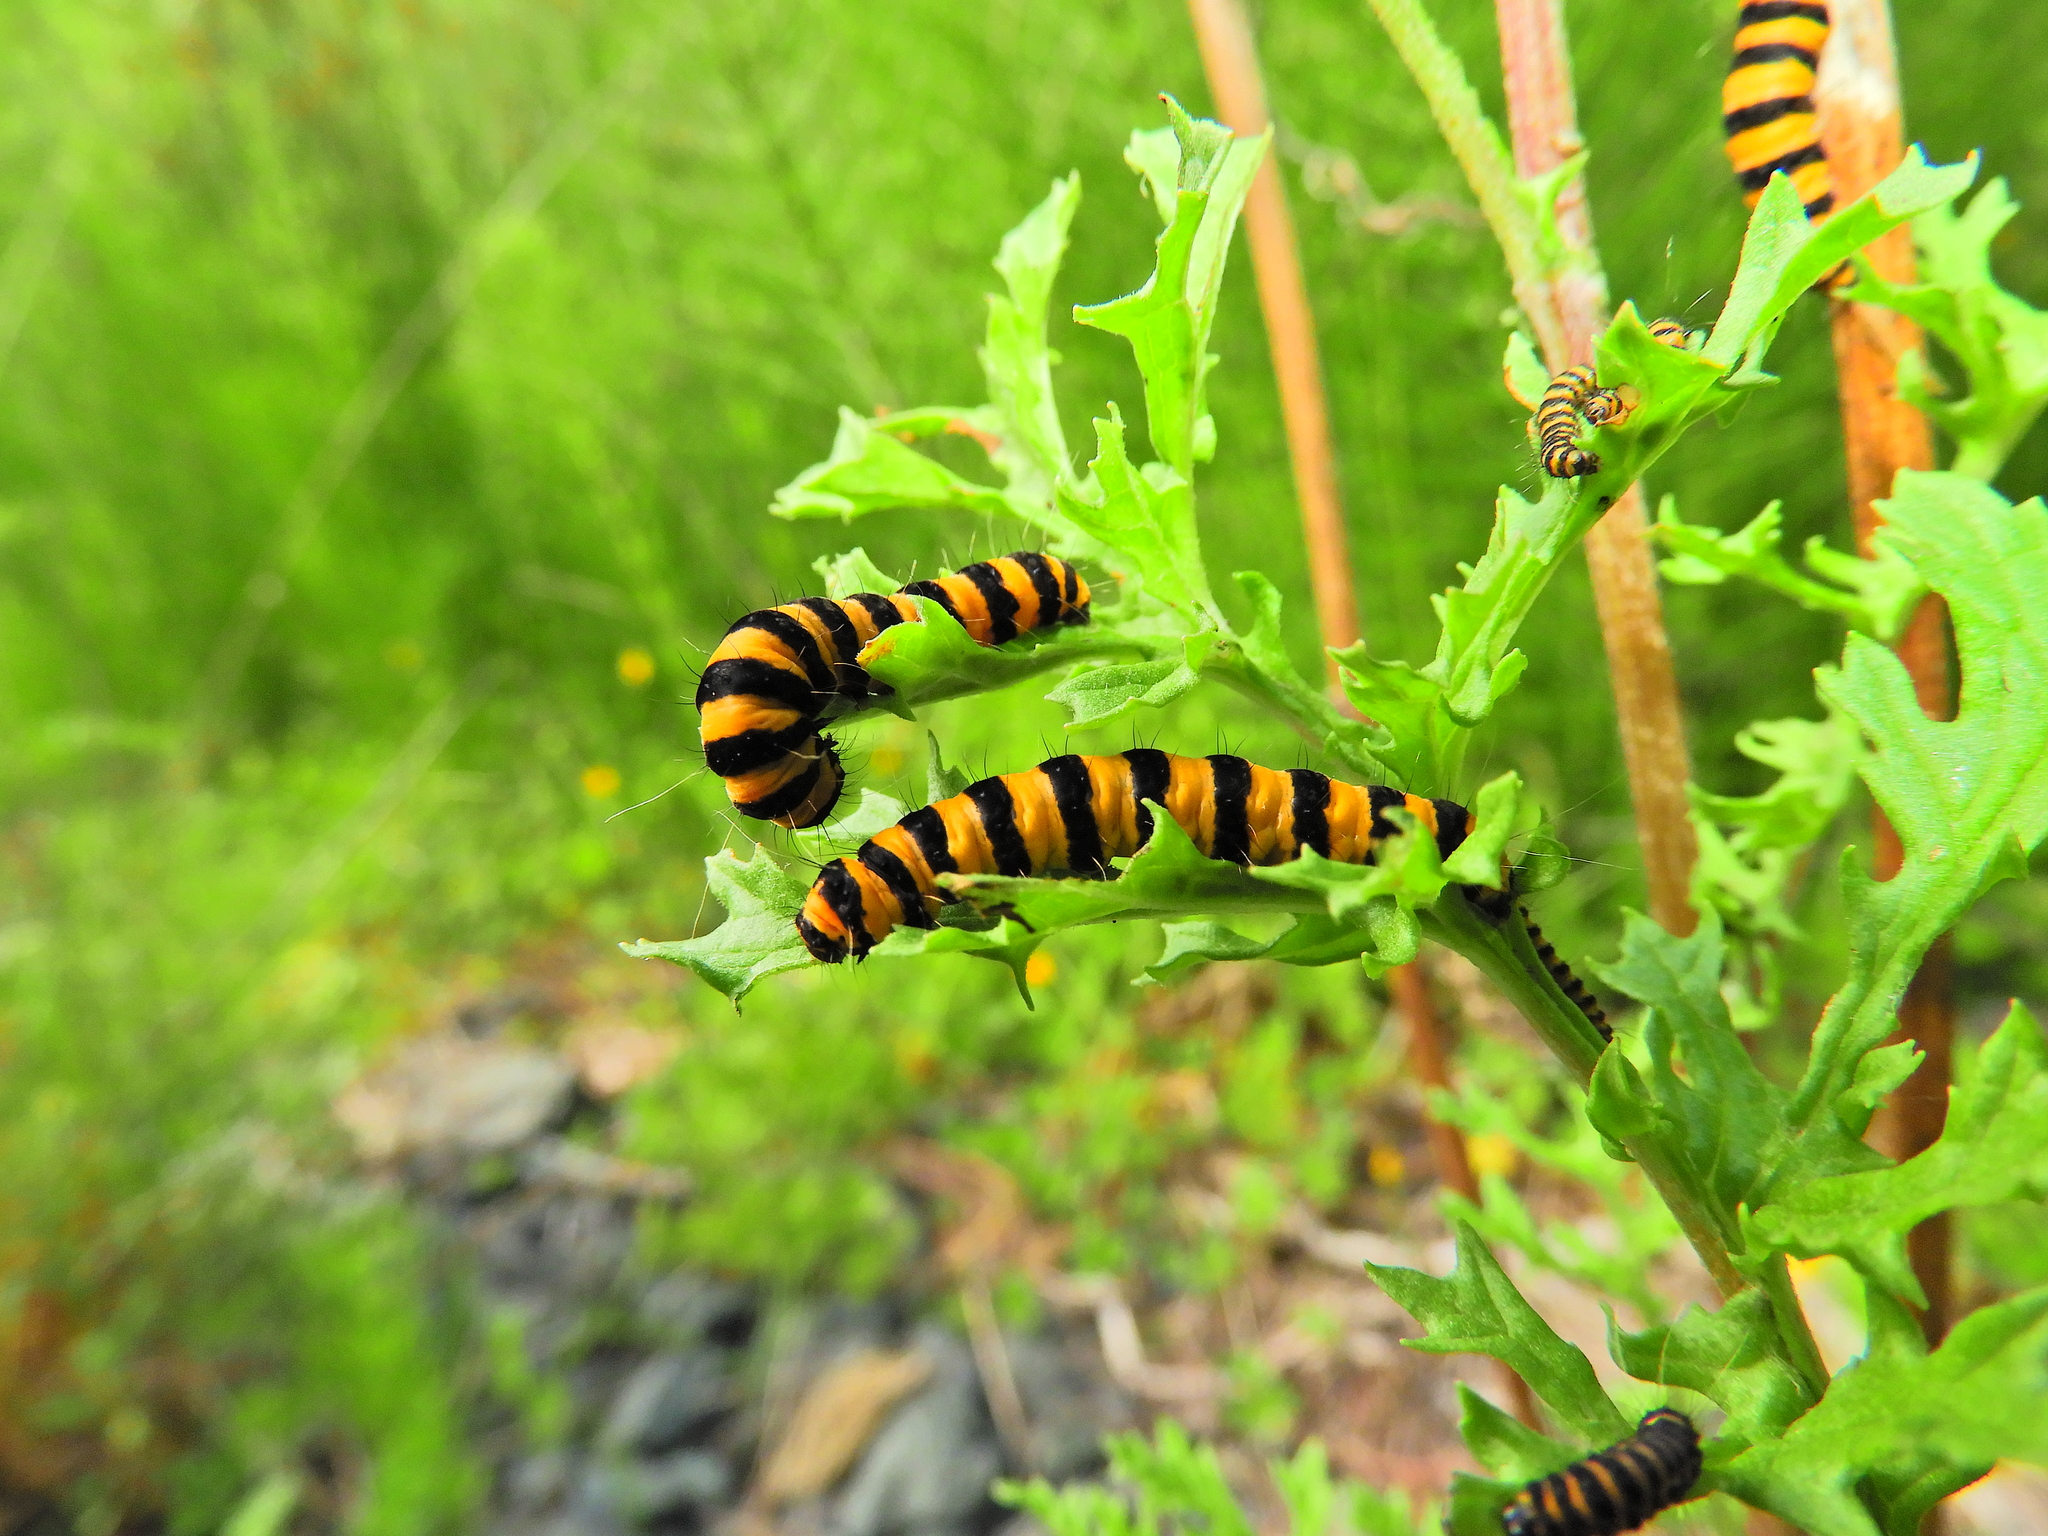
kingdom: Animalia
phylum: Arthropoda
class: Insecta
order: Lepidoptera
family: Erebidae
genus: Tyria
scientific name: Tyria jacobaeae
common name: Cinnabar
